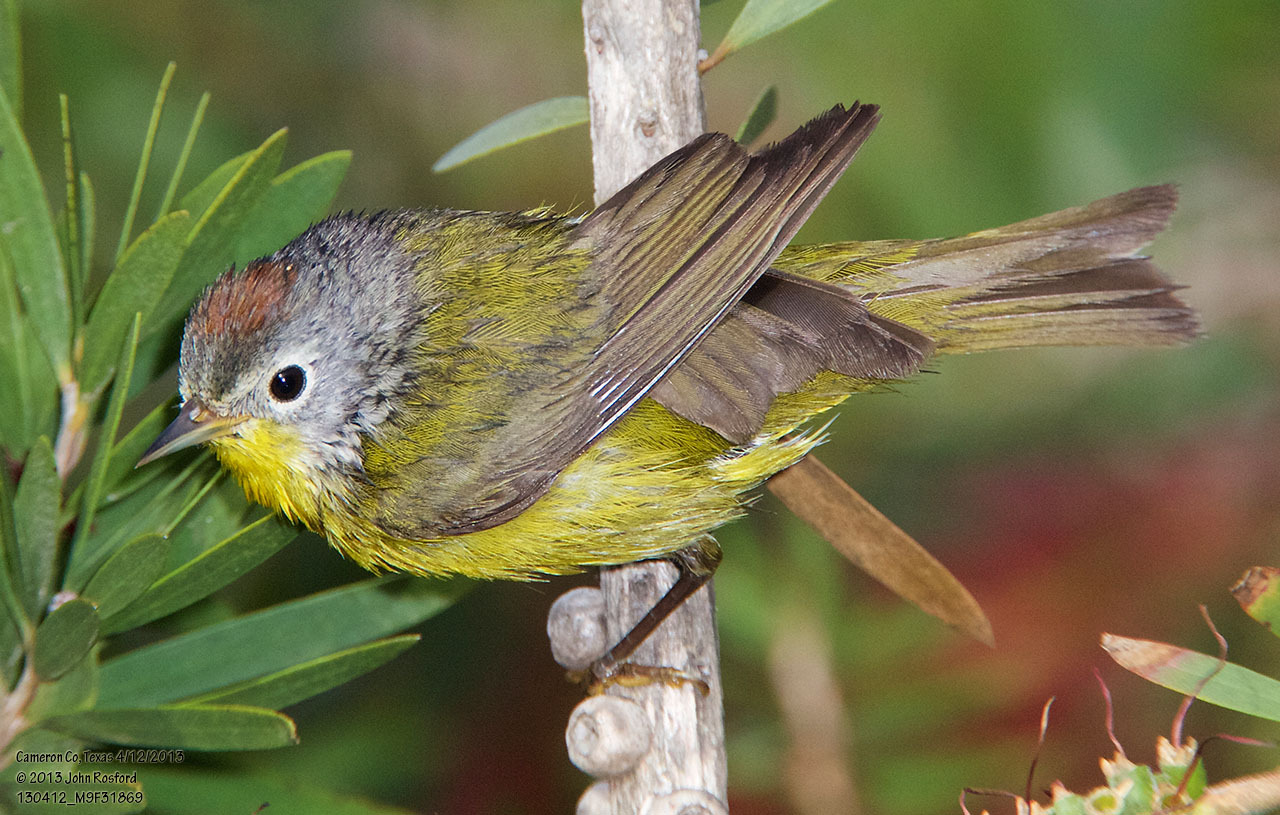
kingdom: Animalia
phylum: Chordata
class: Aves
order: Passeriformes
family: Parulidae
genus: Leiothlypis
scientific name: Leiothlypis ruficapilla
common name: Nashville warbler
